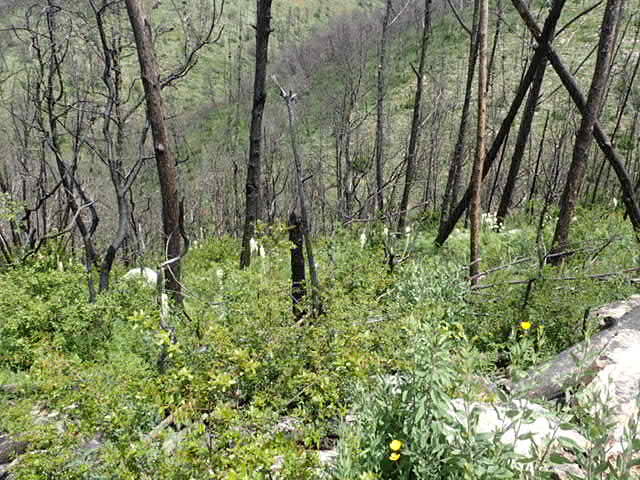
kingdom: Plantae
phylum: Tracheophyta
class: Liliopsida
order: Liliales
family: Melanthiaceae
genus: Xerophyllum
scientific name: Xerophyllum tenax
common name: Bear-grass
